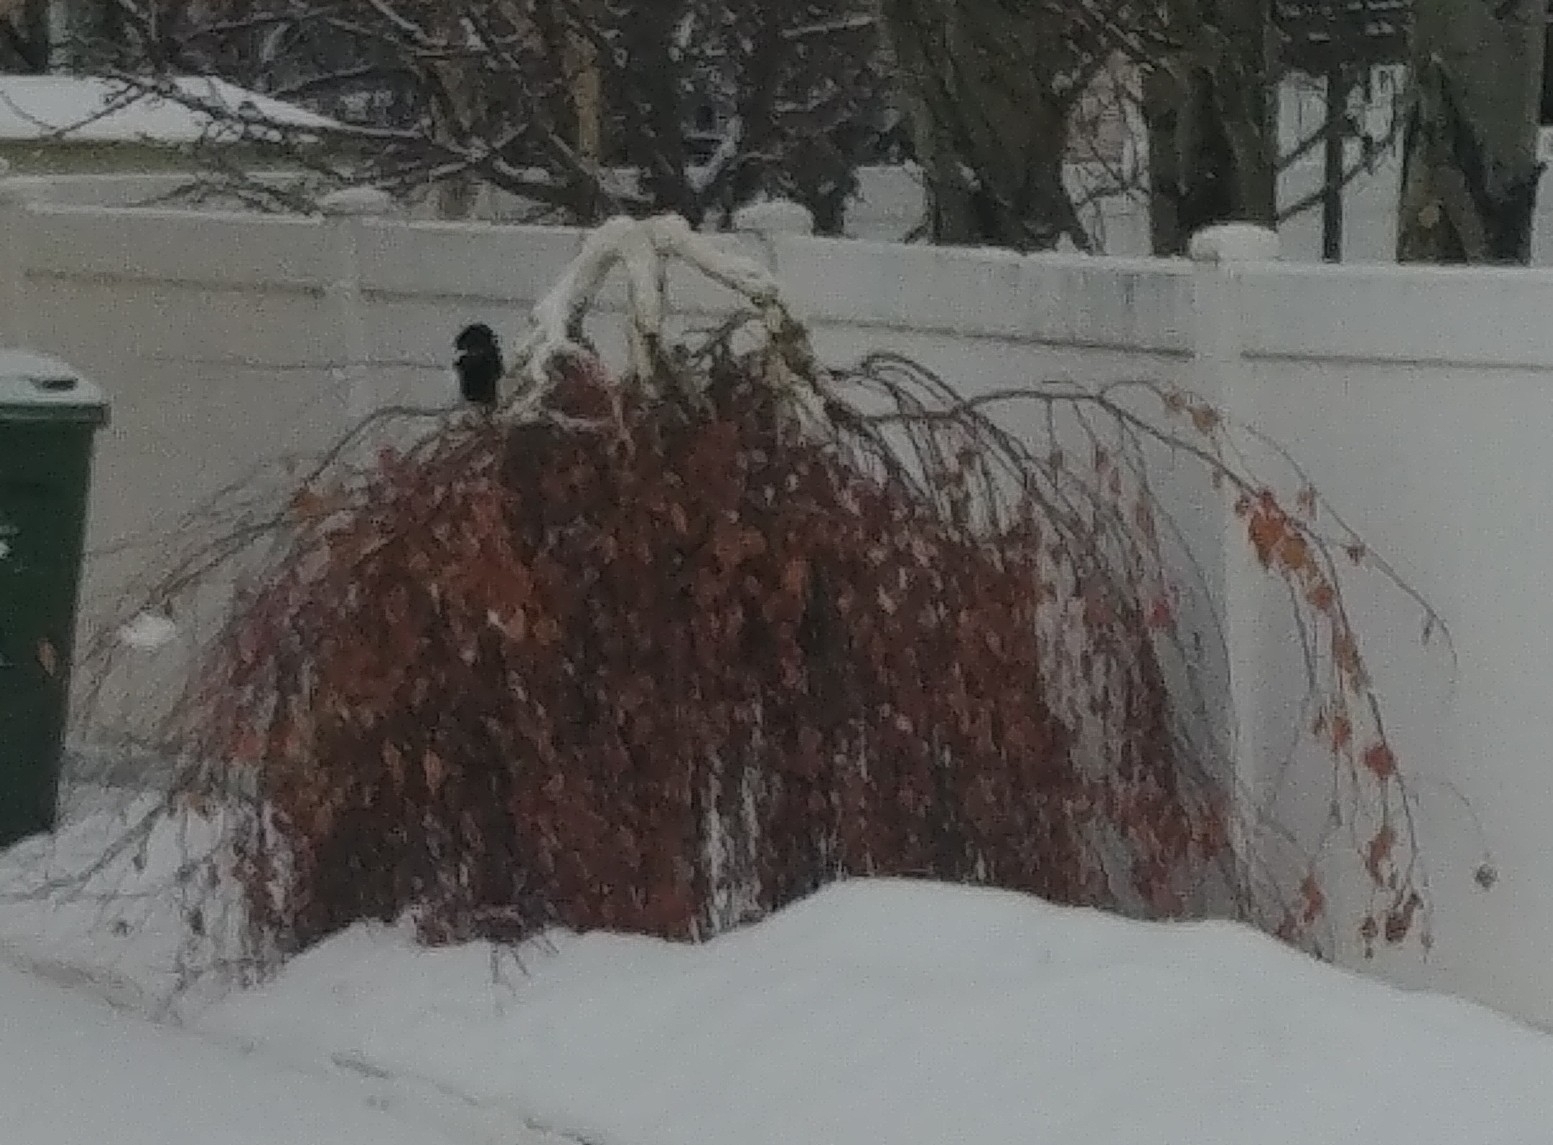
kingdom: Animalia
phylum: Chordata
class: Aves
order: Passeriformes
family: Corvidae
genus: Pica
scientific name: Pica hudsonia
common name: Black-billed magpie
